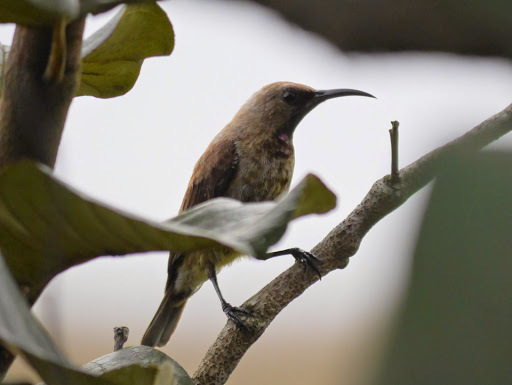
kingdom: Animalia
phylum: Chordata
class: Aves
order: Passeriformes
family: Nectariniidae
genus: Chalcomitra
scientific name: Chalcomitra fuliginosa
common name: Carmelite sunbird
